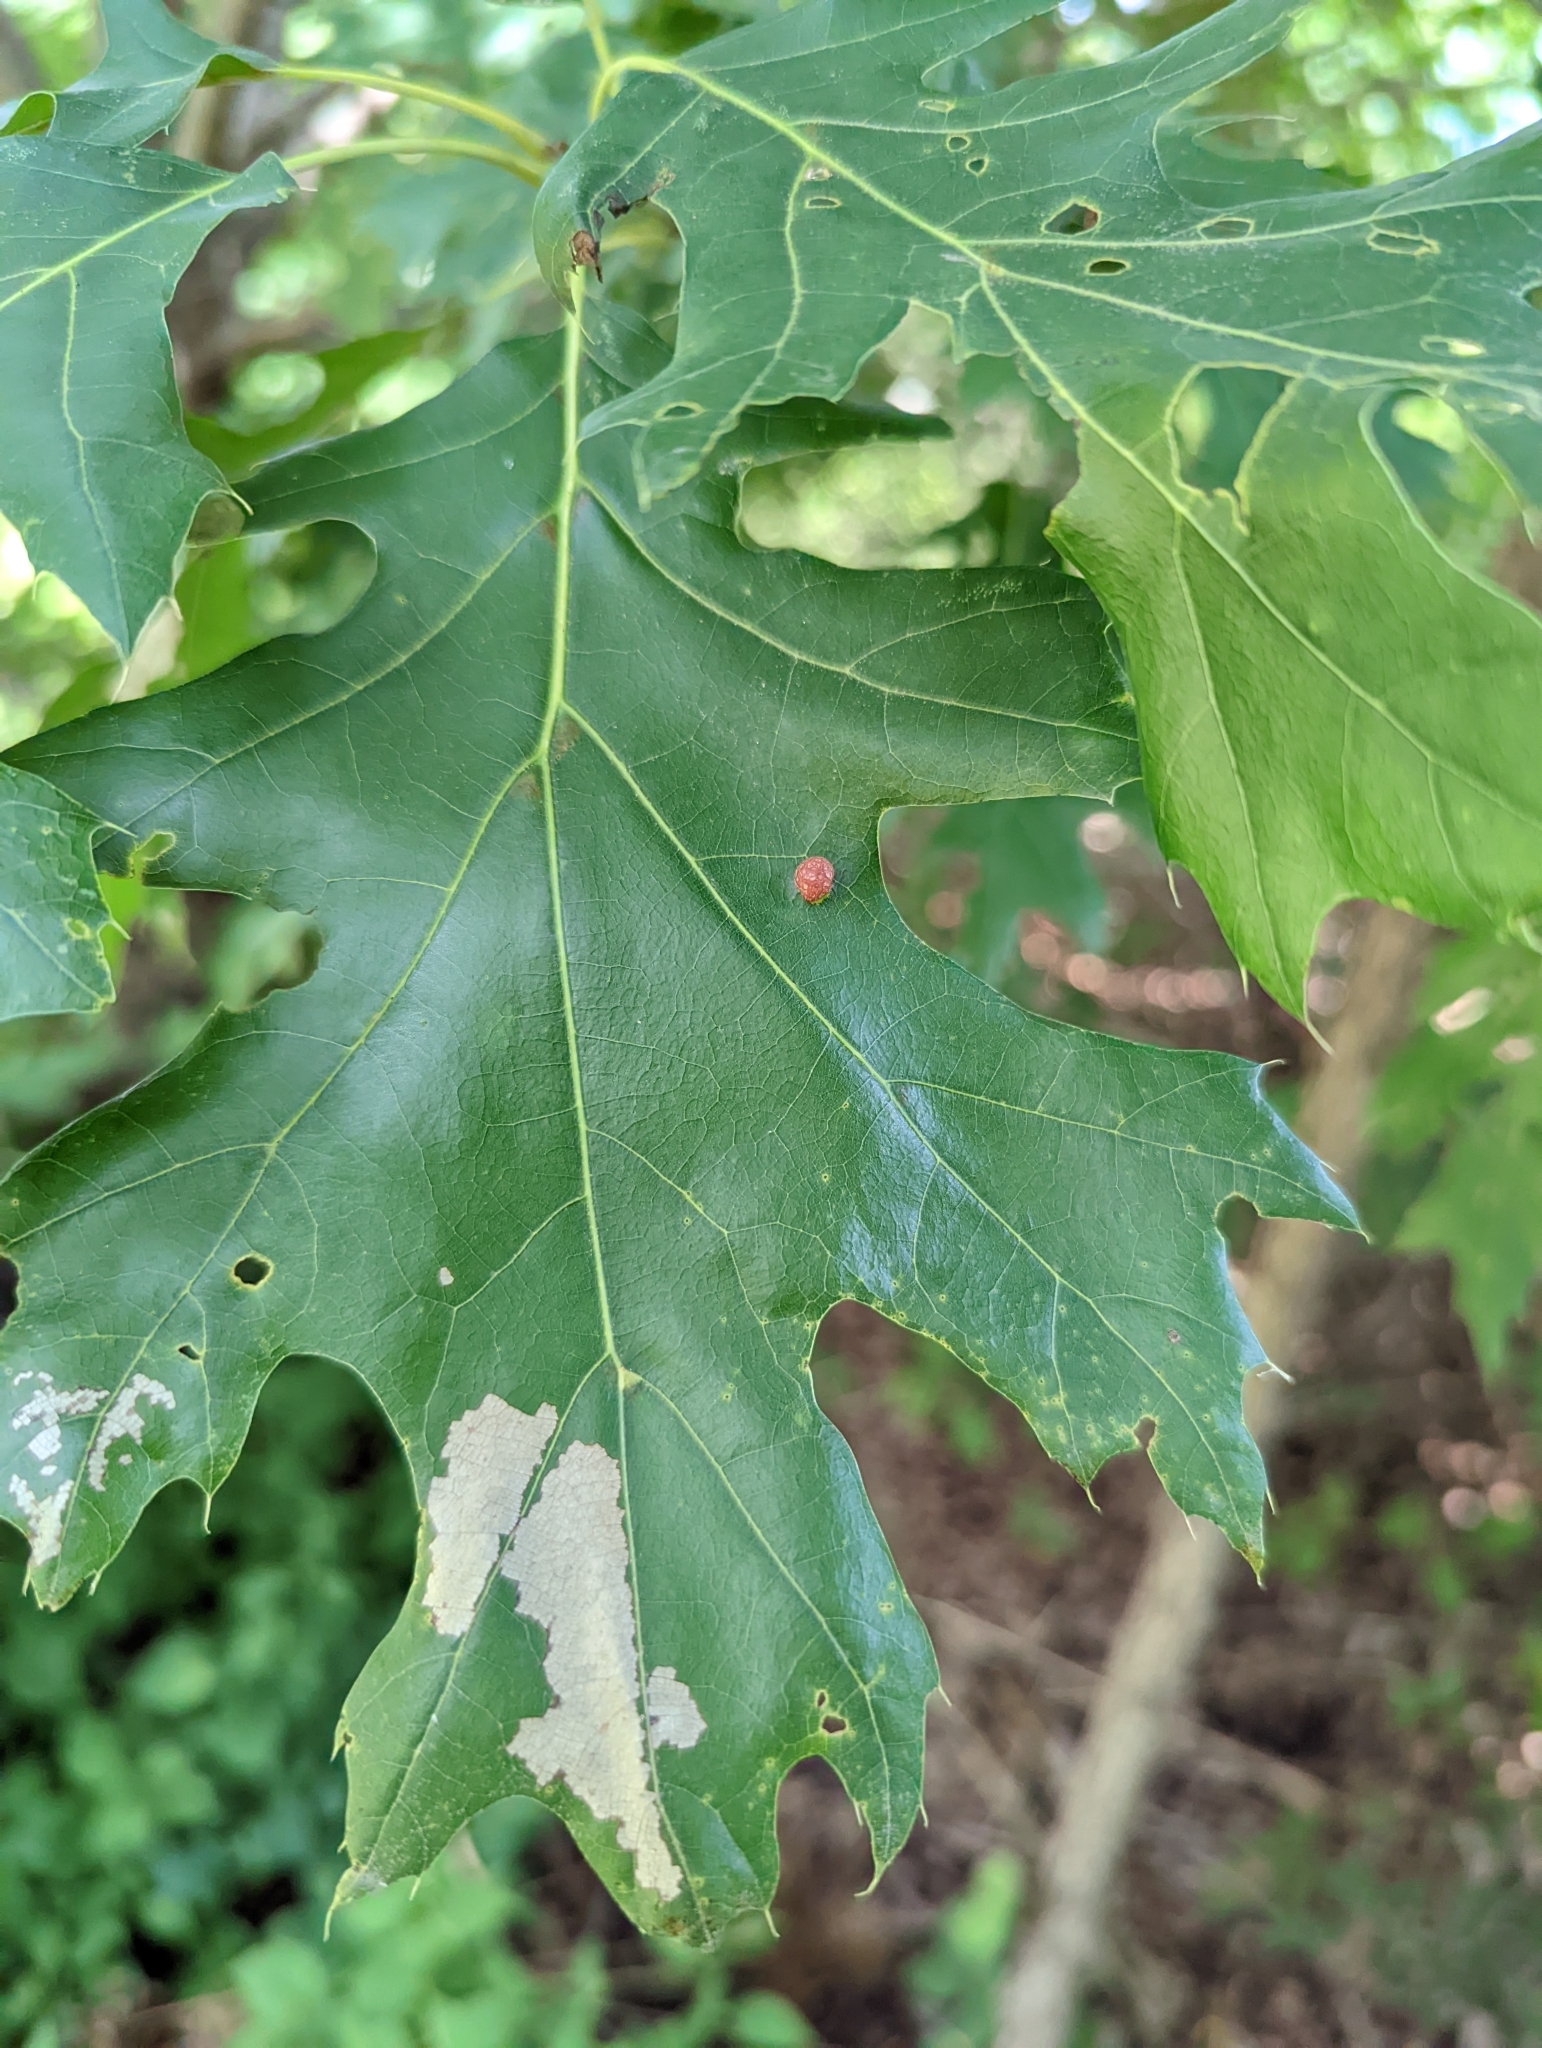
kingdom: Animalia
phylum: Arthropoda
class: Insecta
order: Diptera
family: Cecidomyiidae
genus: Polystepha
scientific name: Polystepha pilulae
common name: Oak leaf gall midge
